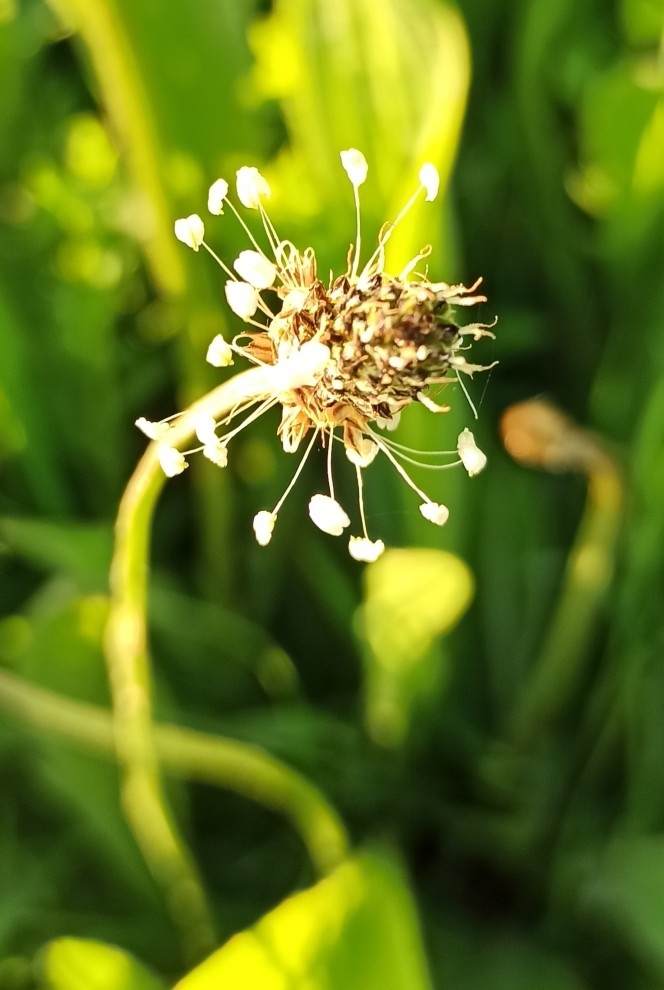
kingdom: Plantae
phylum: Tracheophyta
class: Magnoliopsida
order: Lamiales
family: Plantaginaceae
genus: Plantago
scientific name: Plantago lanceolata
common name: Ribwort plantain
